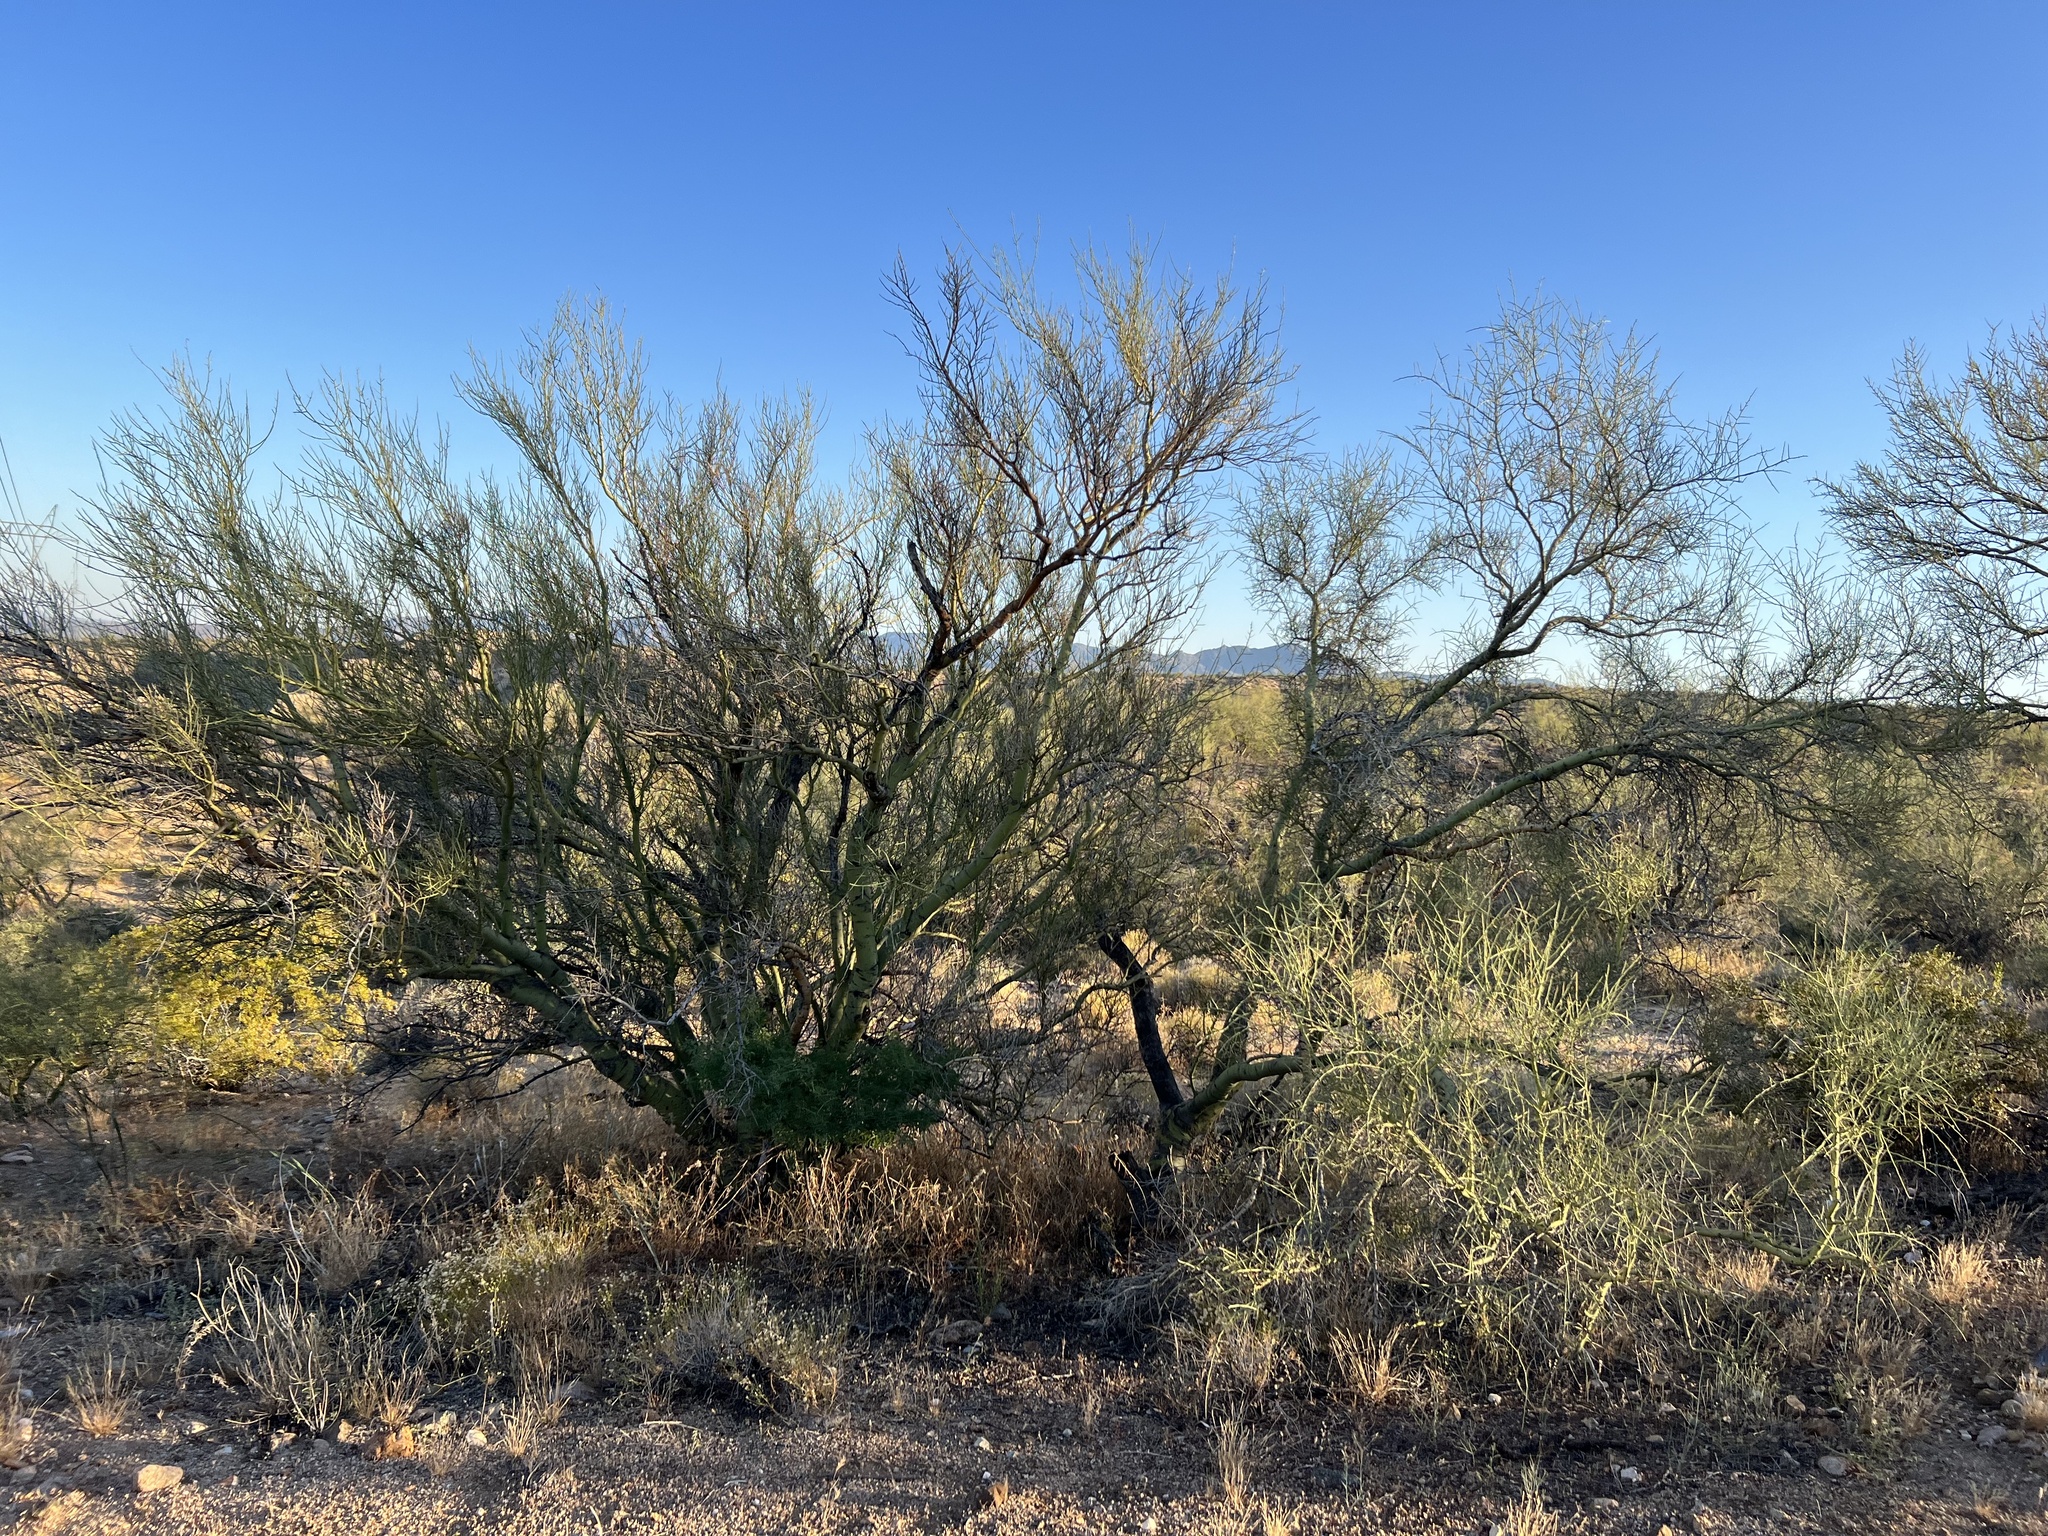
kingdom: Plantae
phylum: Tracheophyta
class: Magnoliopsida
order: Fabales
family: Fabaceae
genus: Parkinsonia
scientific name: Parkinsonia microphylla
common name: Yellow paloverde
